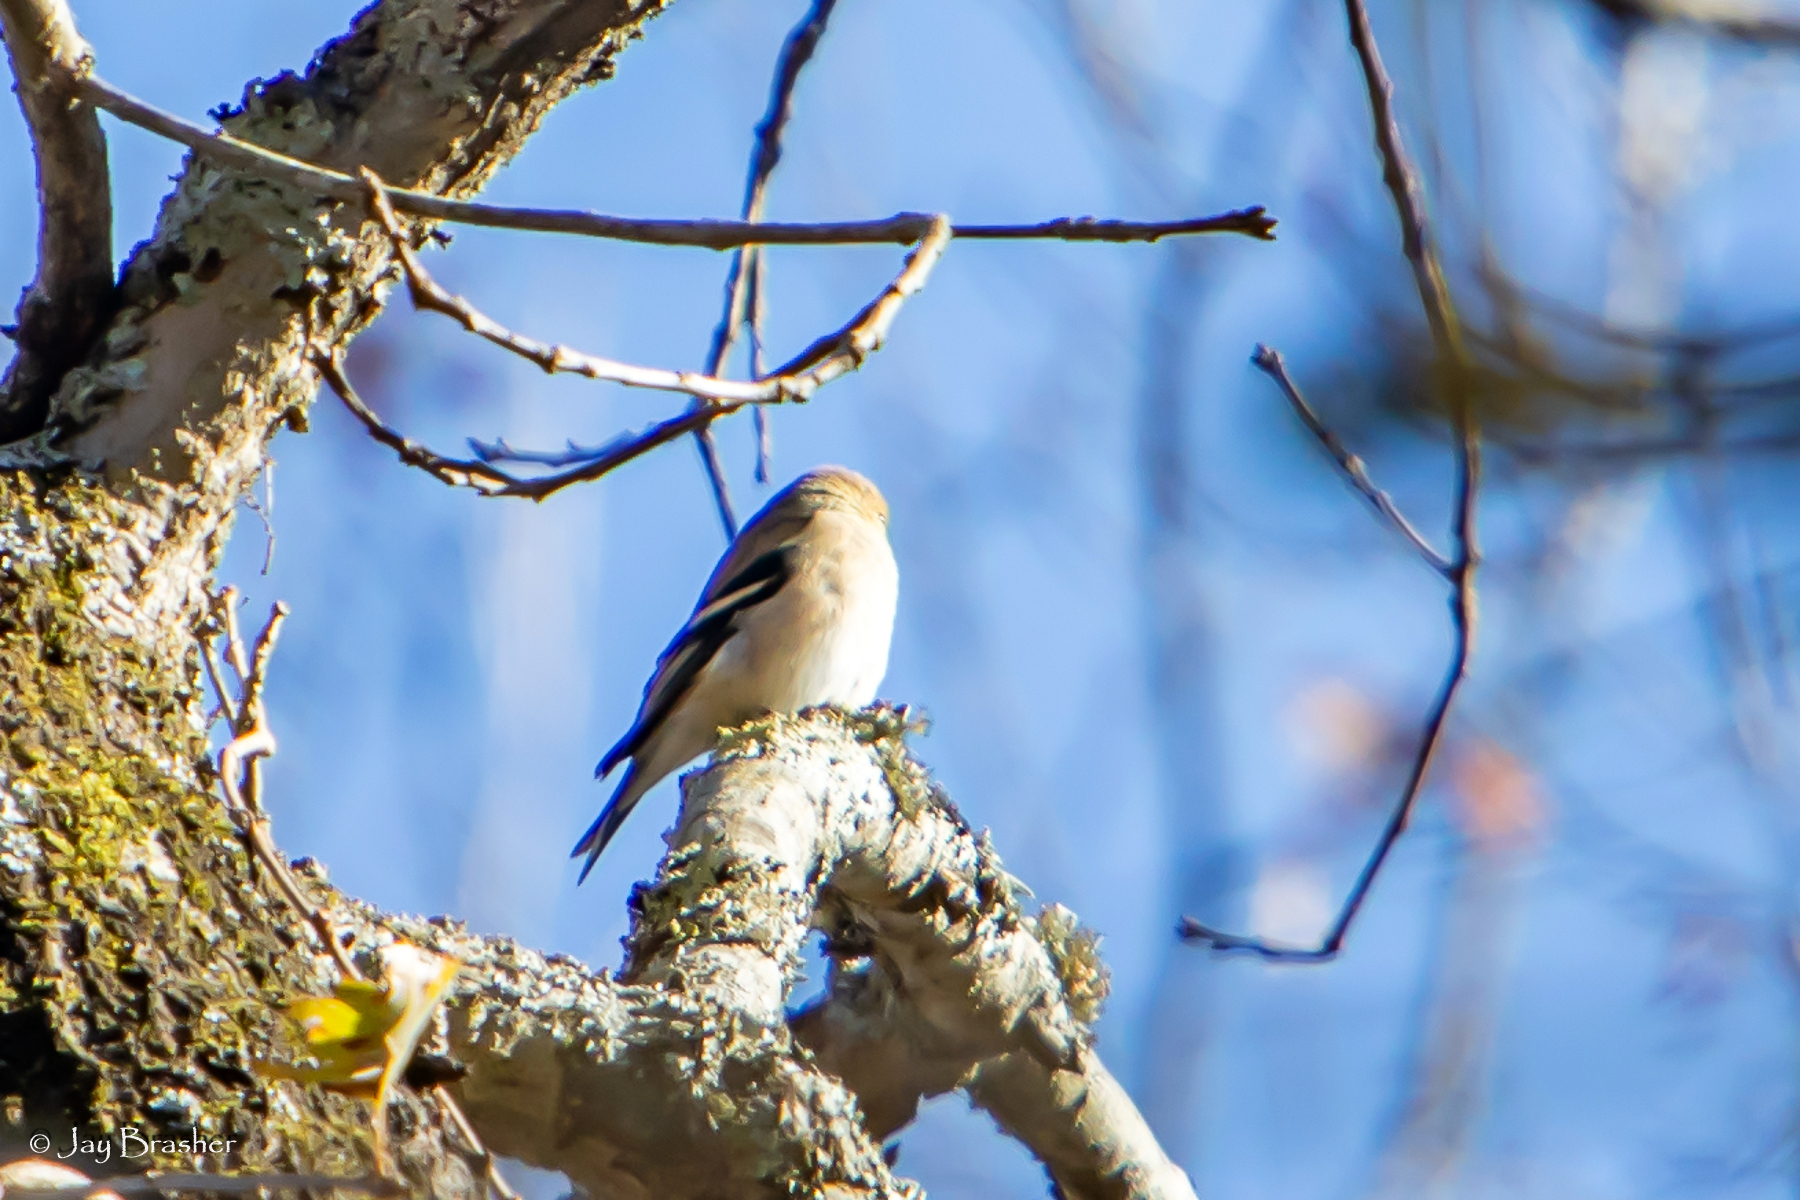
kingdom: Animalia
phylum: Chordata
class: Aves
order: Passeriformes
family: Fringillidae
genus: Spinus
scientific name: Spinus tristis
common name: American goldfinch
